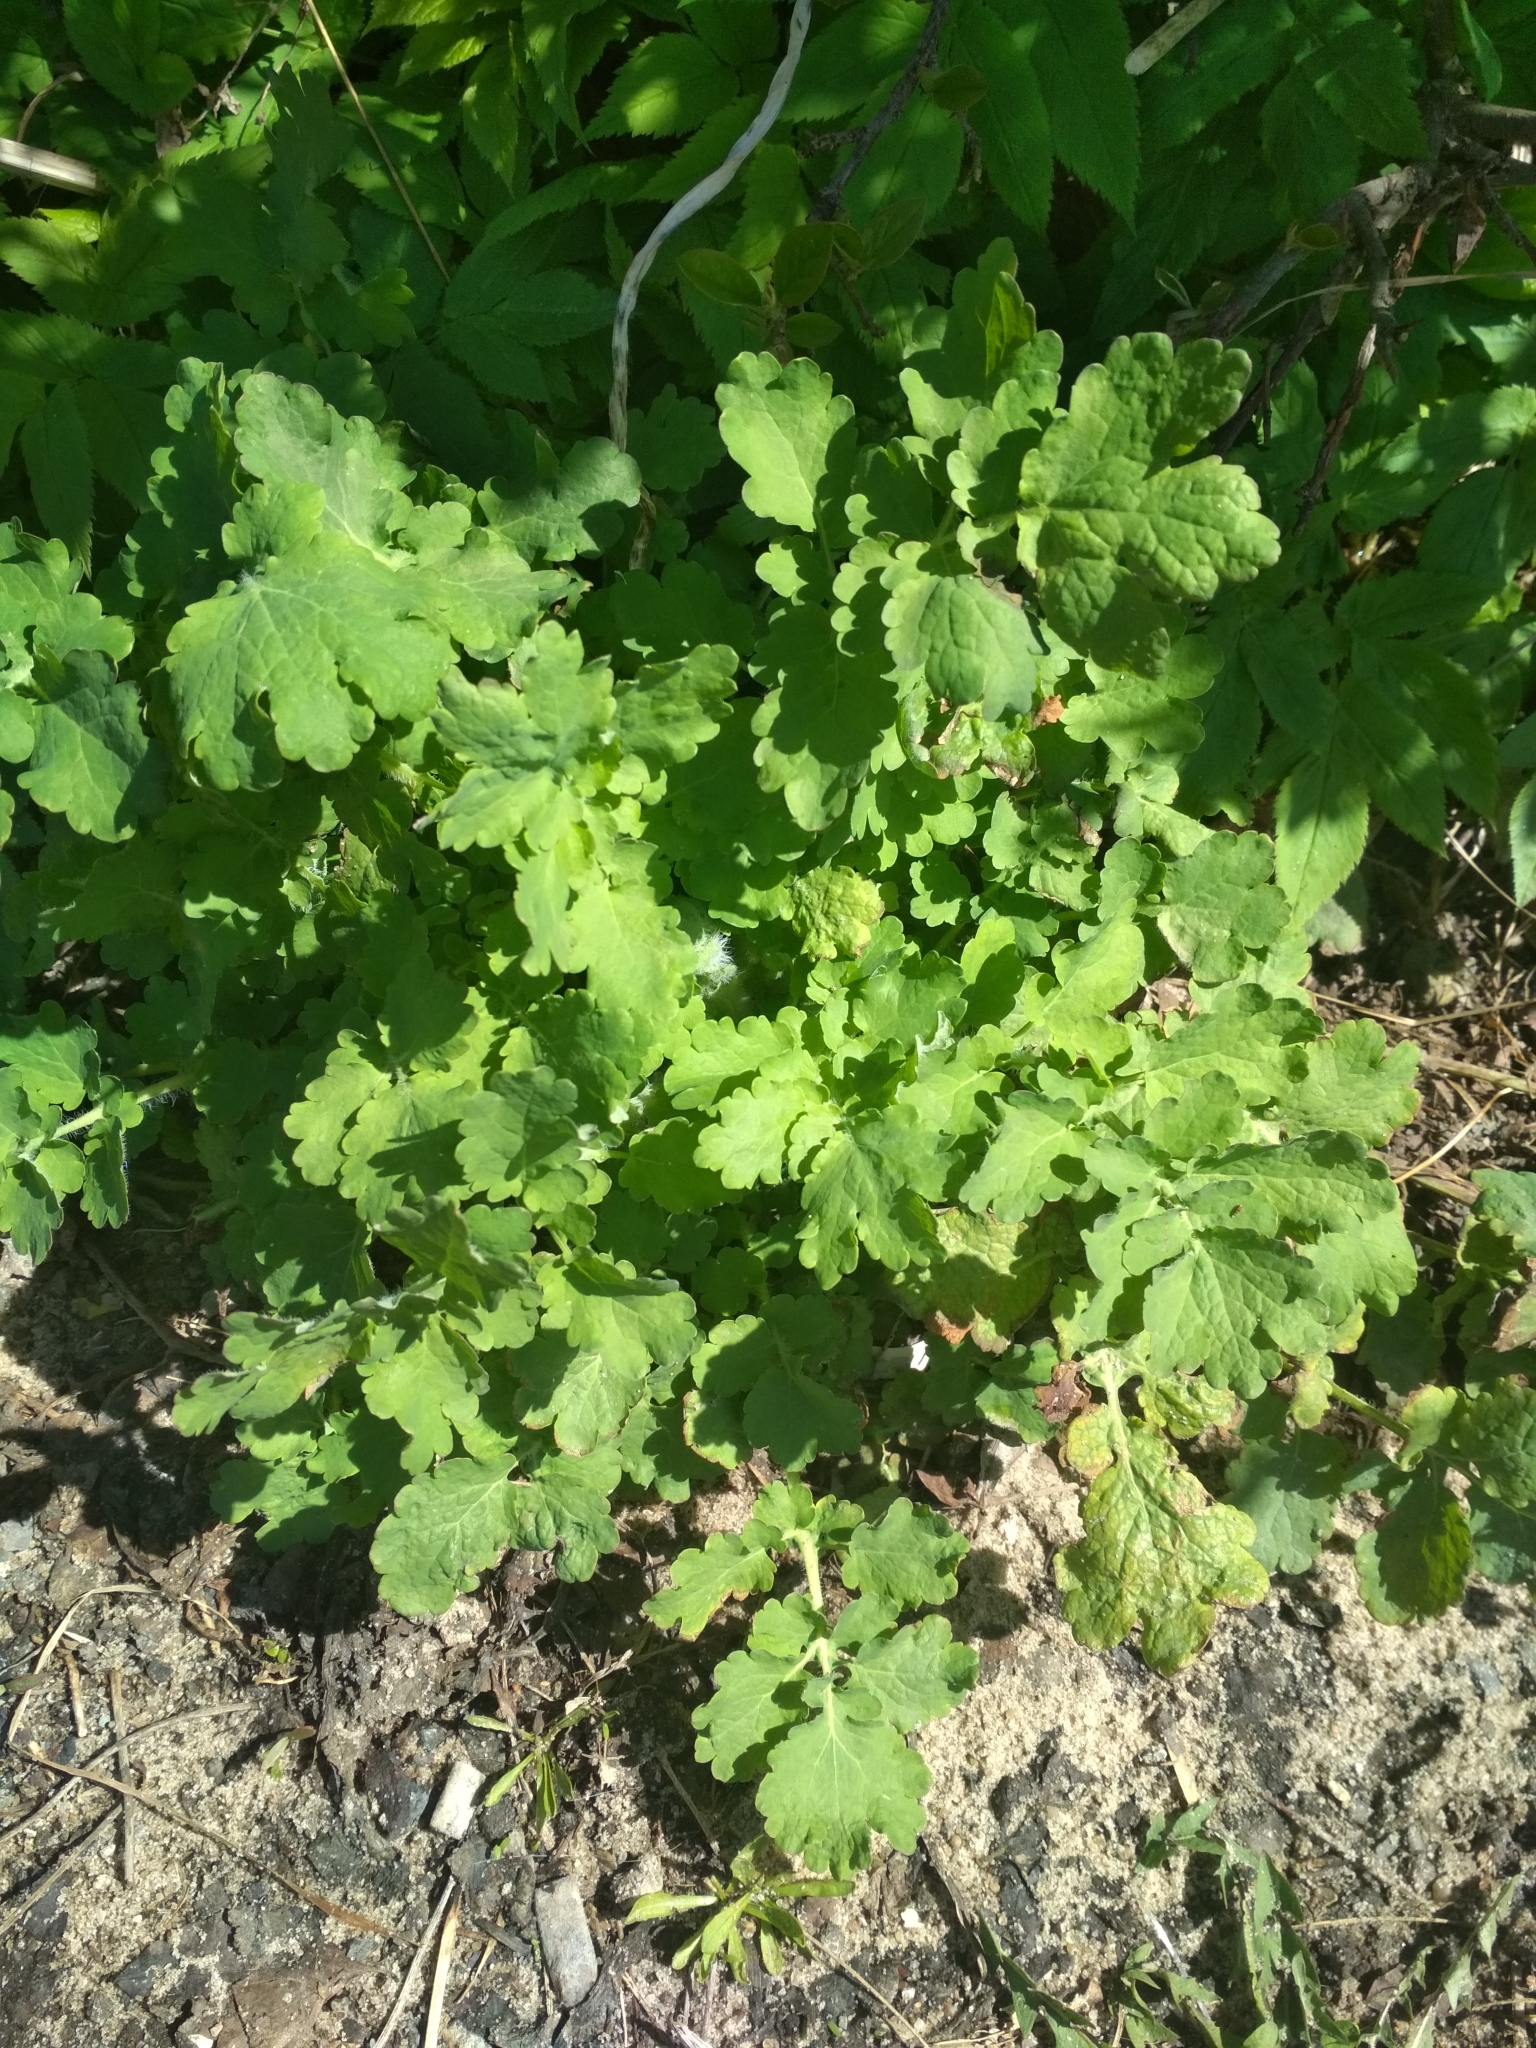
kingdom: Plantae
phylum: Tracheophyta
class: Magnoliopsida
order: Ranunculales
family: Papaveraceae
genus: Chelidonium
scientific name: Chelidonium majus
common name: Greater celandine
